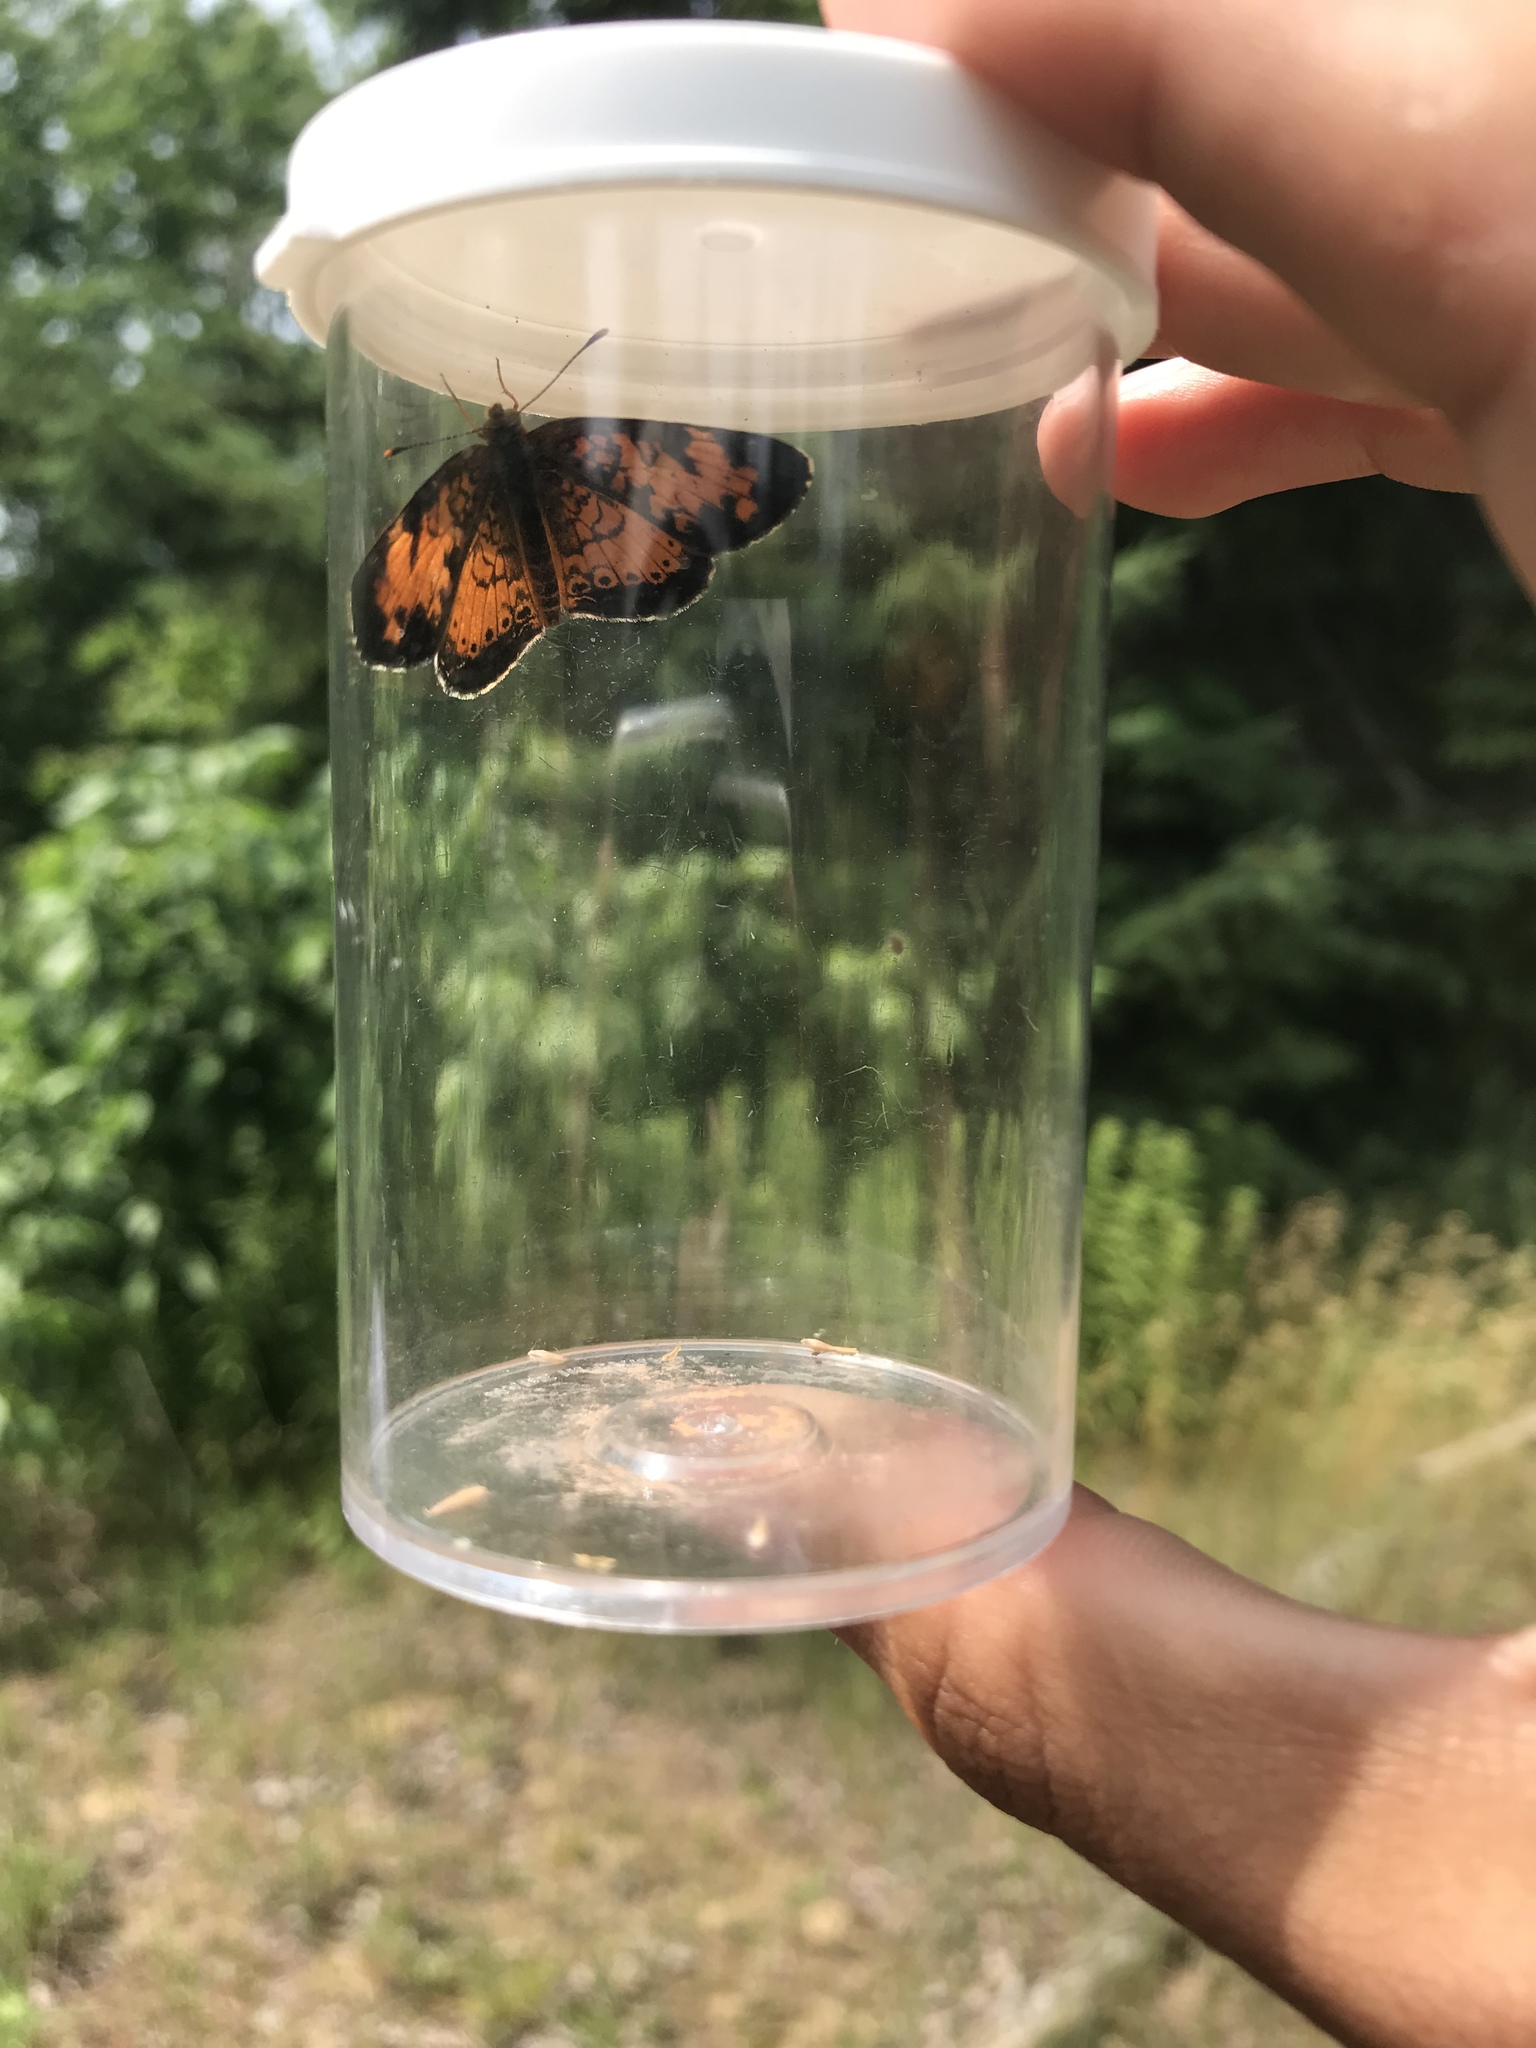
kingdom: Animalia
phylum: Arthropoda
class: Insecta
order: Lepidoptera
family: Nymphalidae
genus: Phyciodes
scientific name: Phyciodes tharos
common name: Pearl crescent
